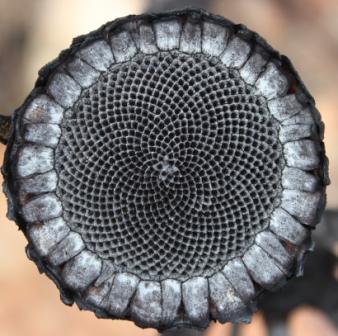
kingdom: Plantae
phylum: Tracheophyta
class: Magnoliopsida
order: Proteales
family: Proteaceae
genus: Protea
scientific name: Protea lorifolia
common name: Strap-leaved protea
